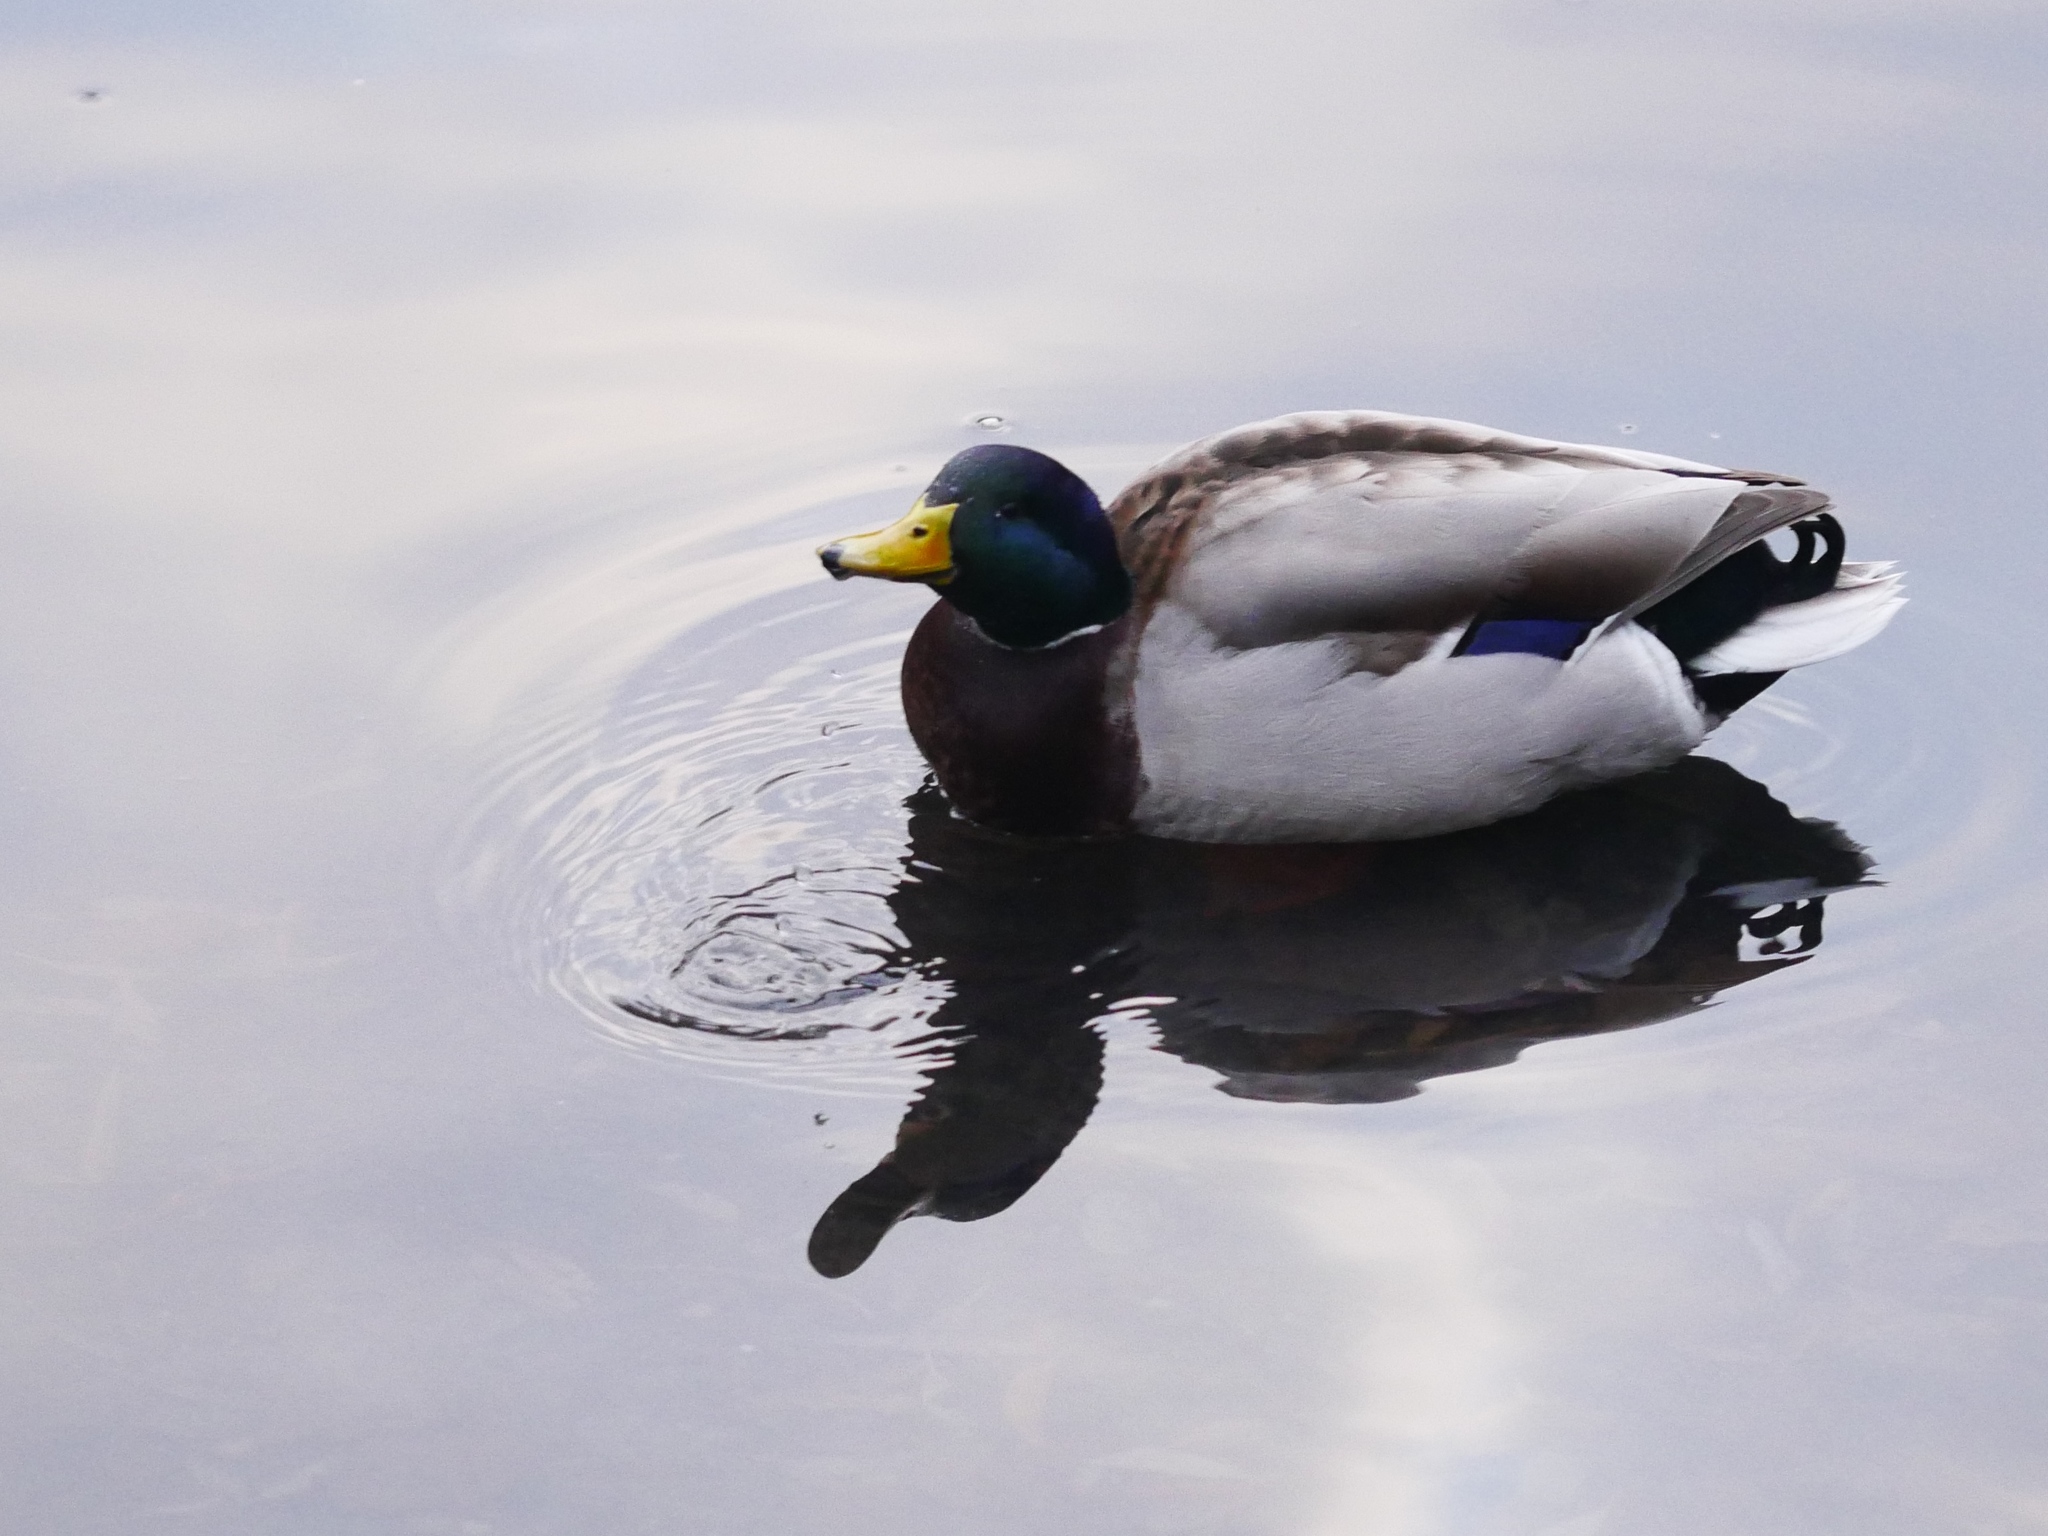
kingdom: Animalia
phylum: Chordata
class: Aves
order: Anseriformes
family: Anatidae
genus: Anas
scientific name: Anas platyrhynchos
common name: Mallard
